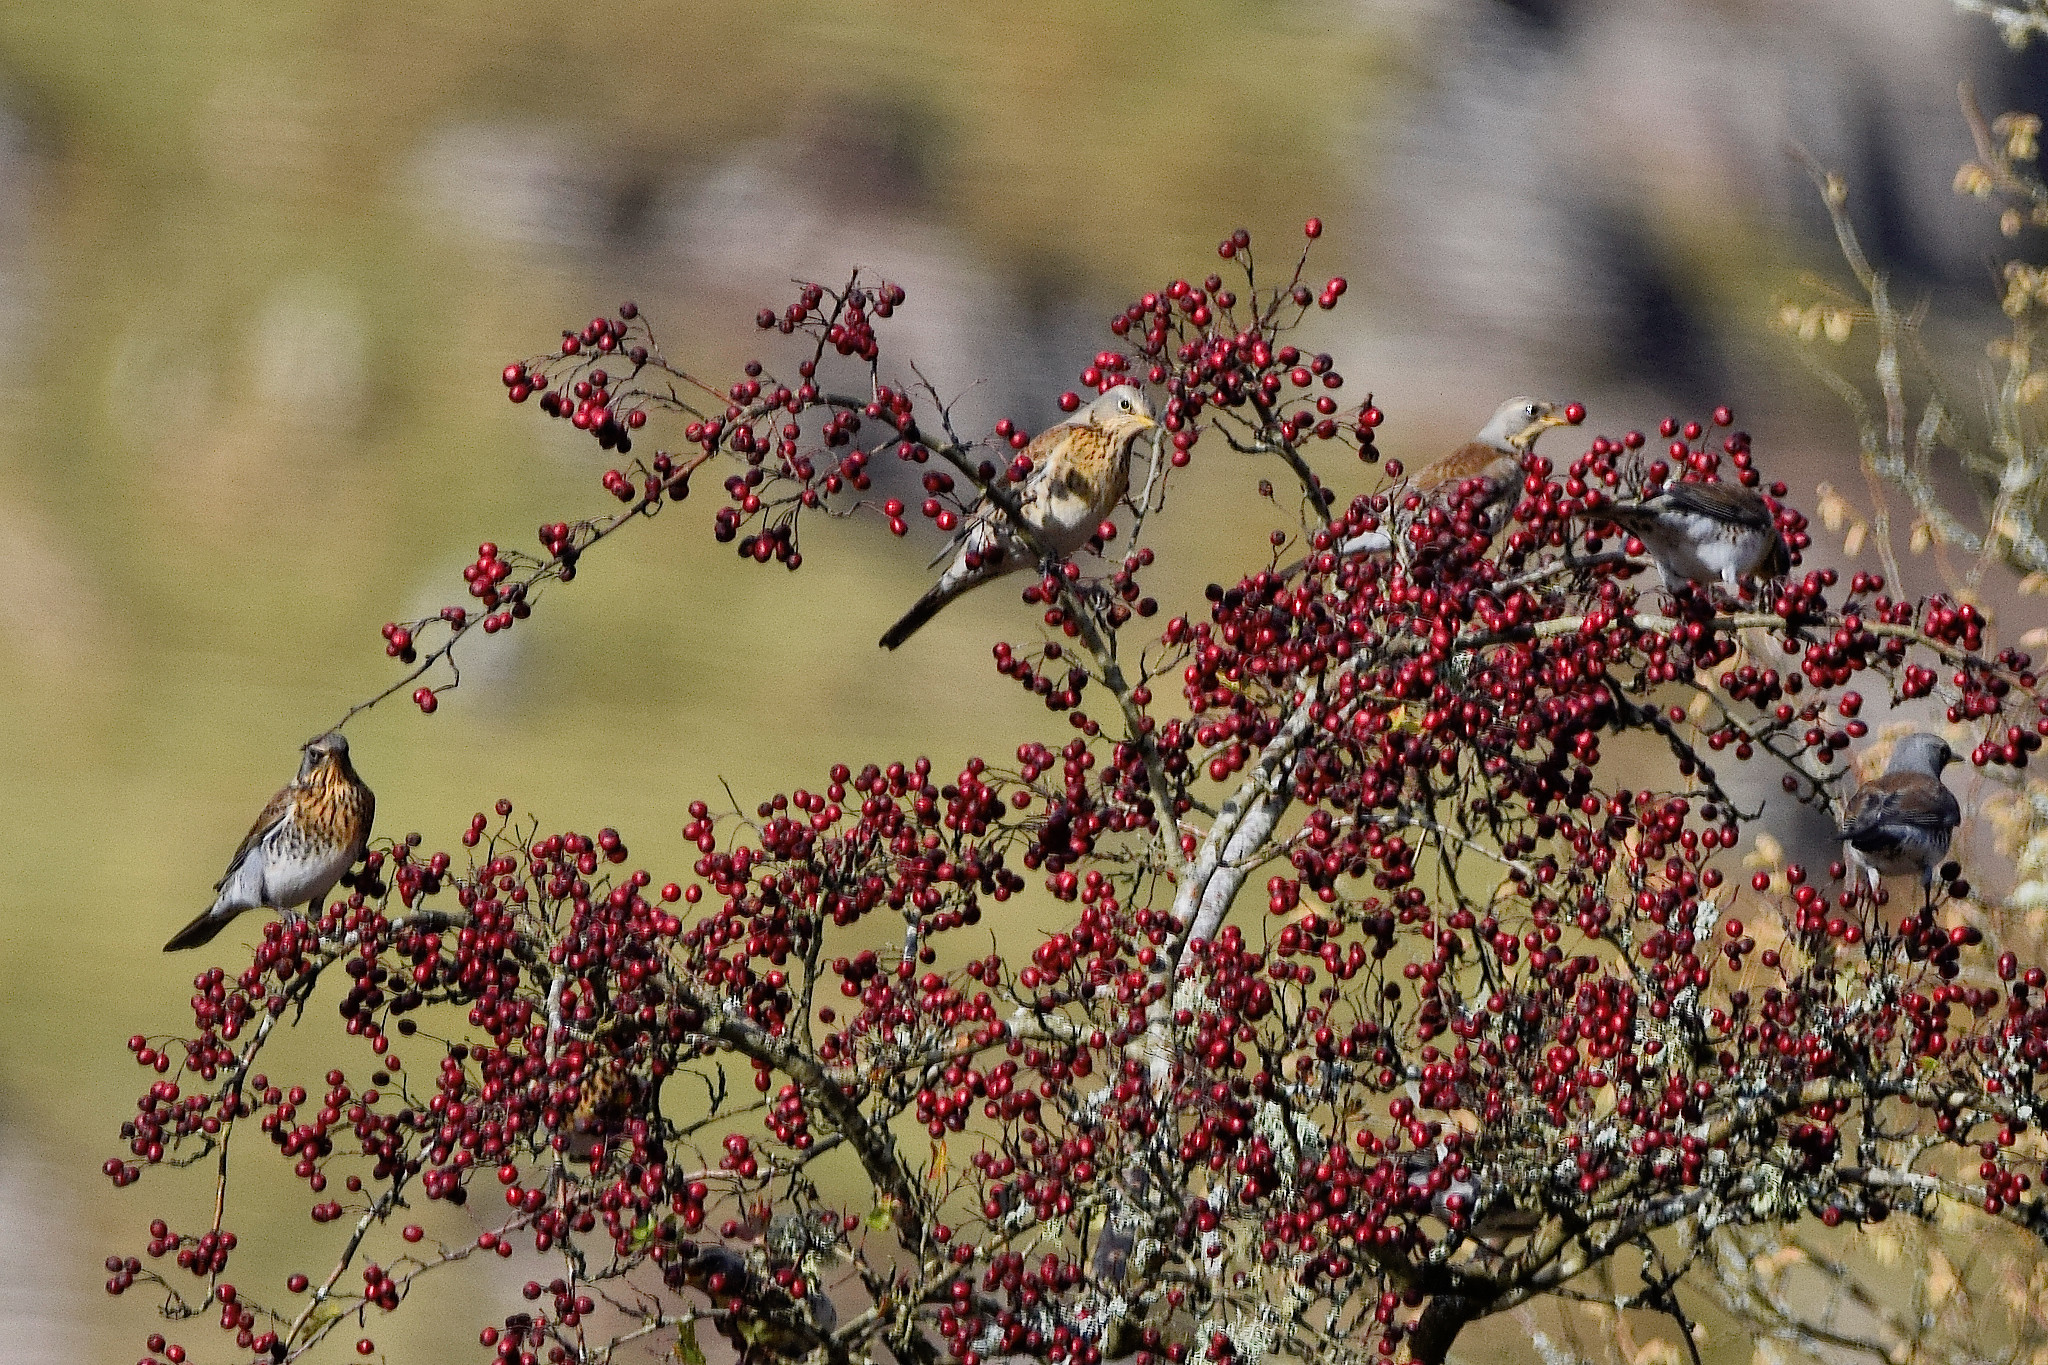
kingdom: Animalia
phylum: Chordata
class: Aves
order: Passeriformes
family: Turdidae
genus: Turdus
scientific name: Turdus pilaris
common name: Fieldfare
